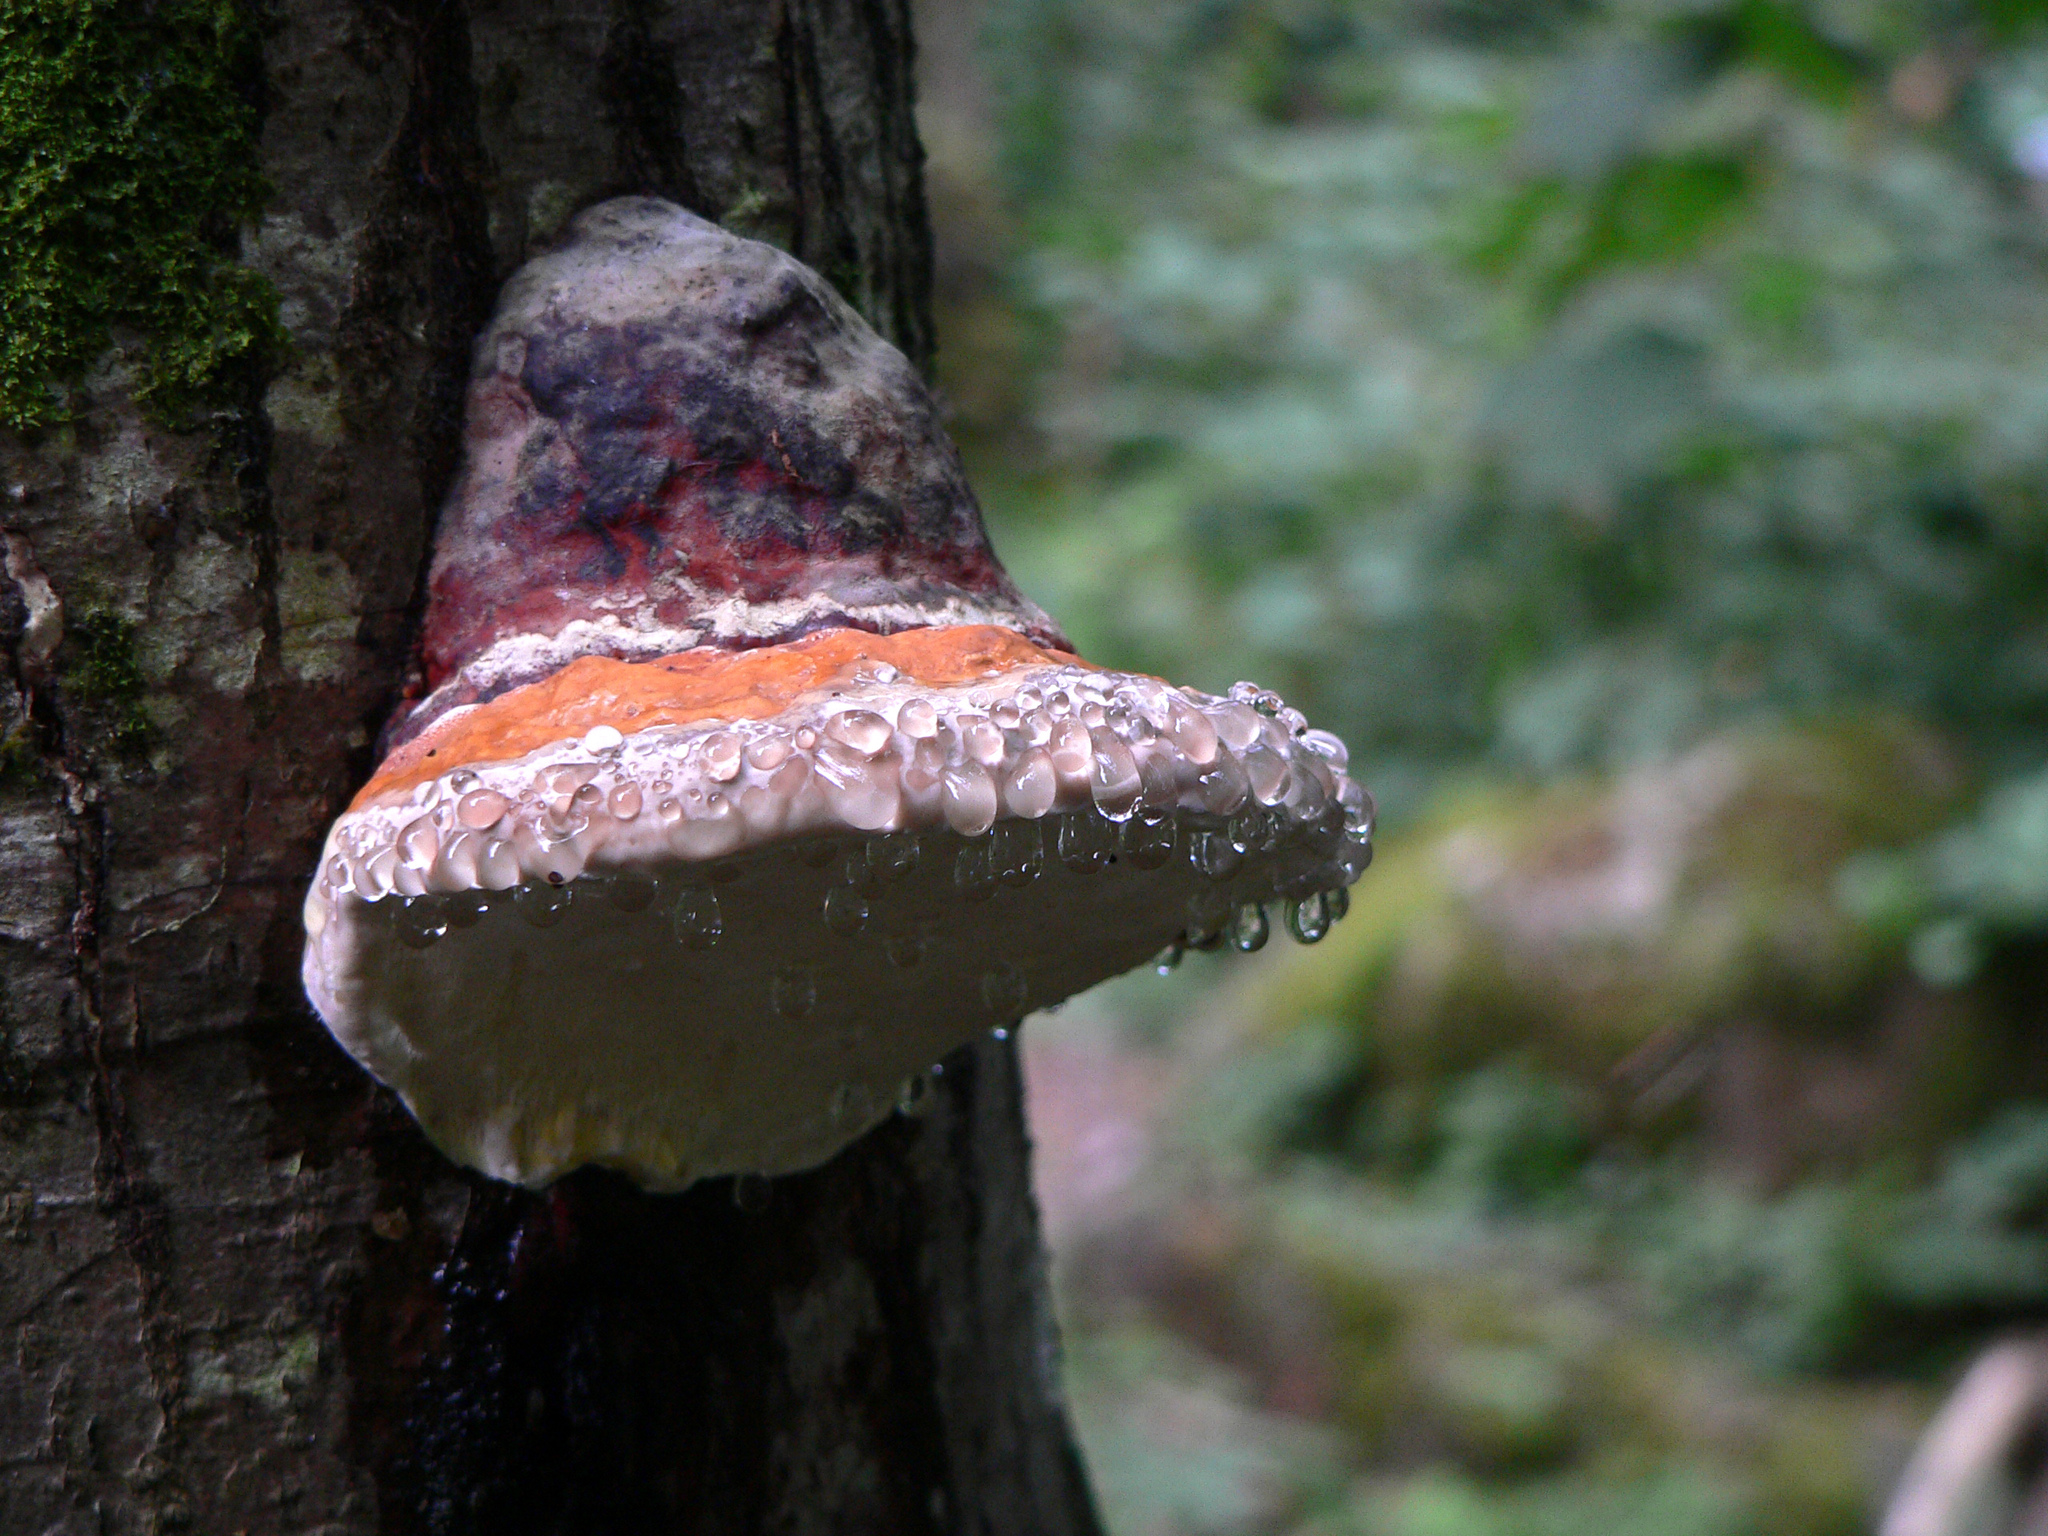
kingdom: Fungi
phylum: Basidiomycota
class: Agaricomycetes
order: Polyporales
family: Fomitopsidaceae
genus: Fomitopsis
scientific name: Fomitopsis pinicola
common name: Red-belted bracket
